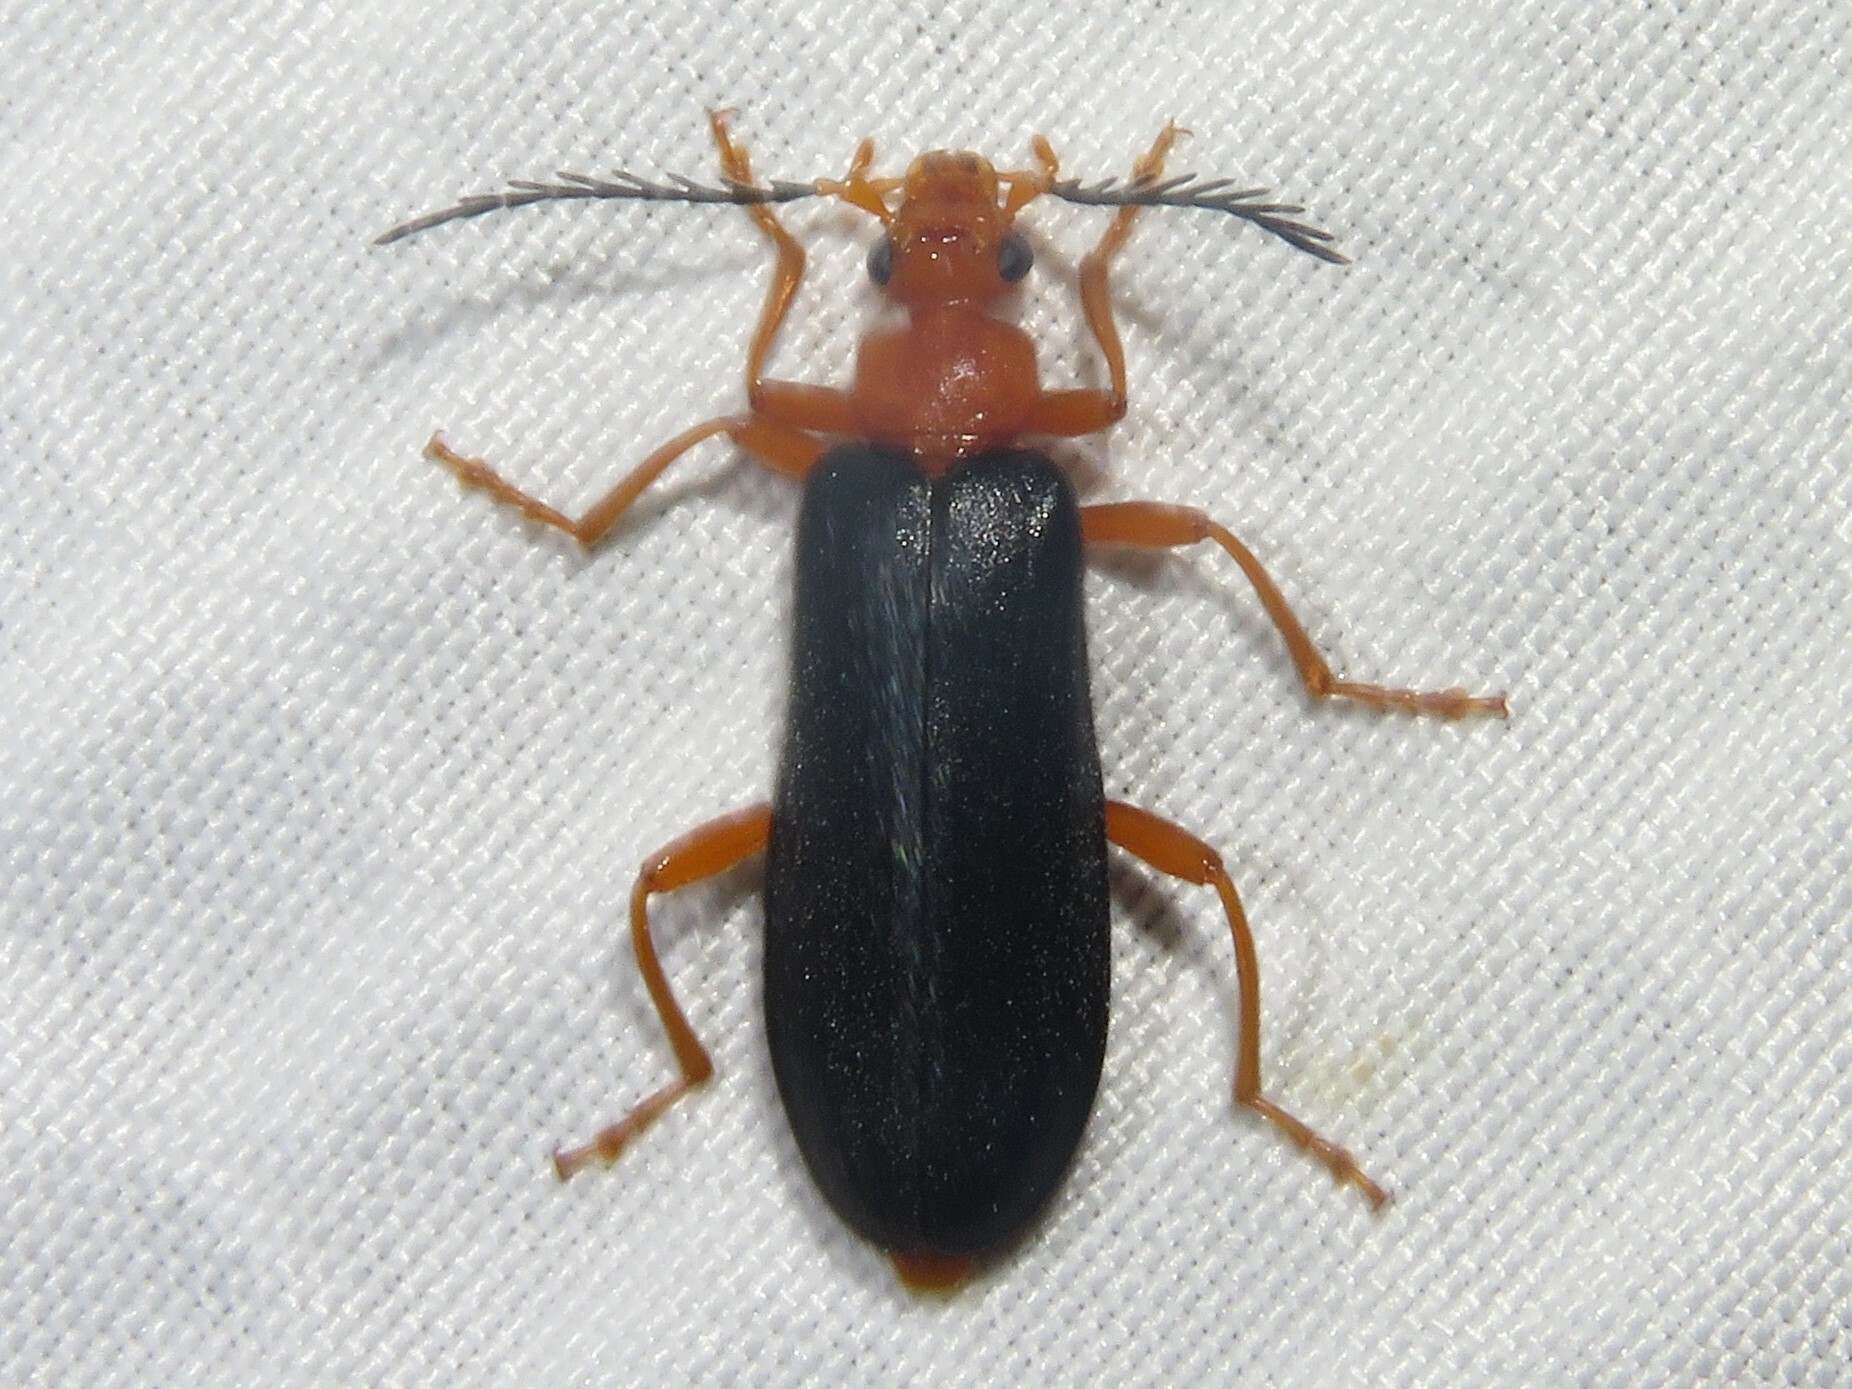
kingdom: Animalia
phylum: Arthropoda
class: Insecta
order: Coleoptera
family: Pyrochroidae
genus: Neopyrochroa
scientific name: Neopyrochroa flabellata
